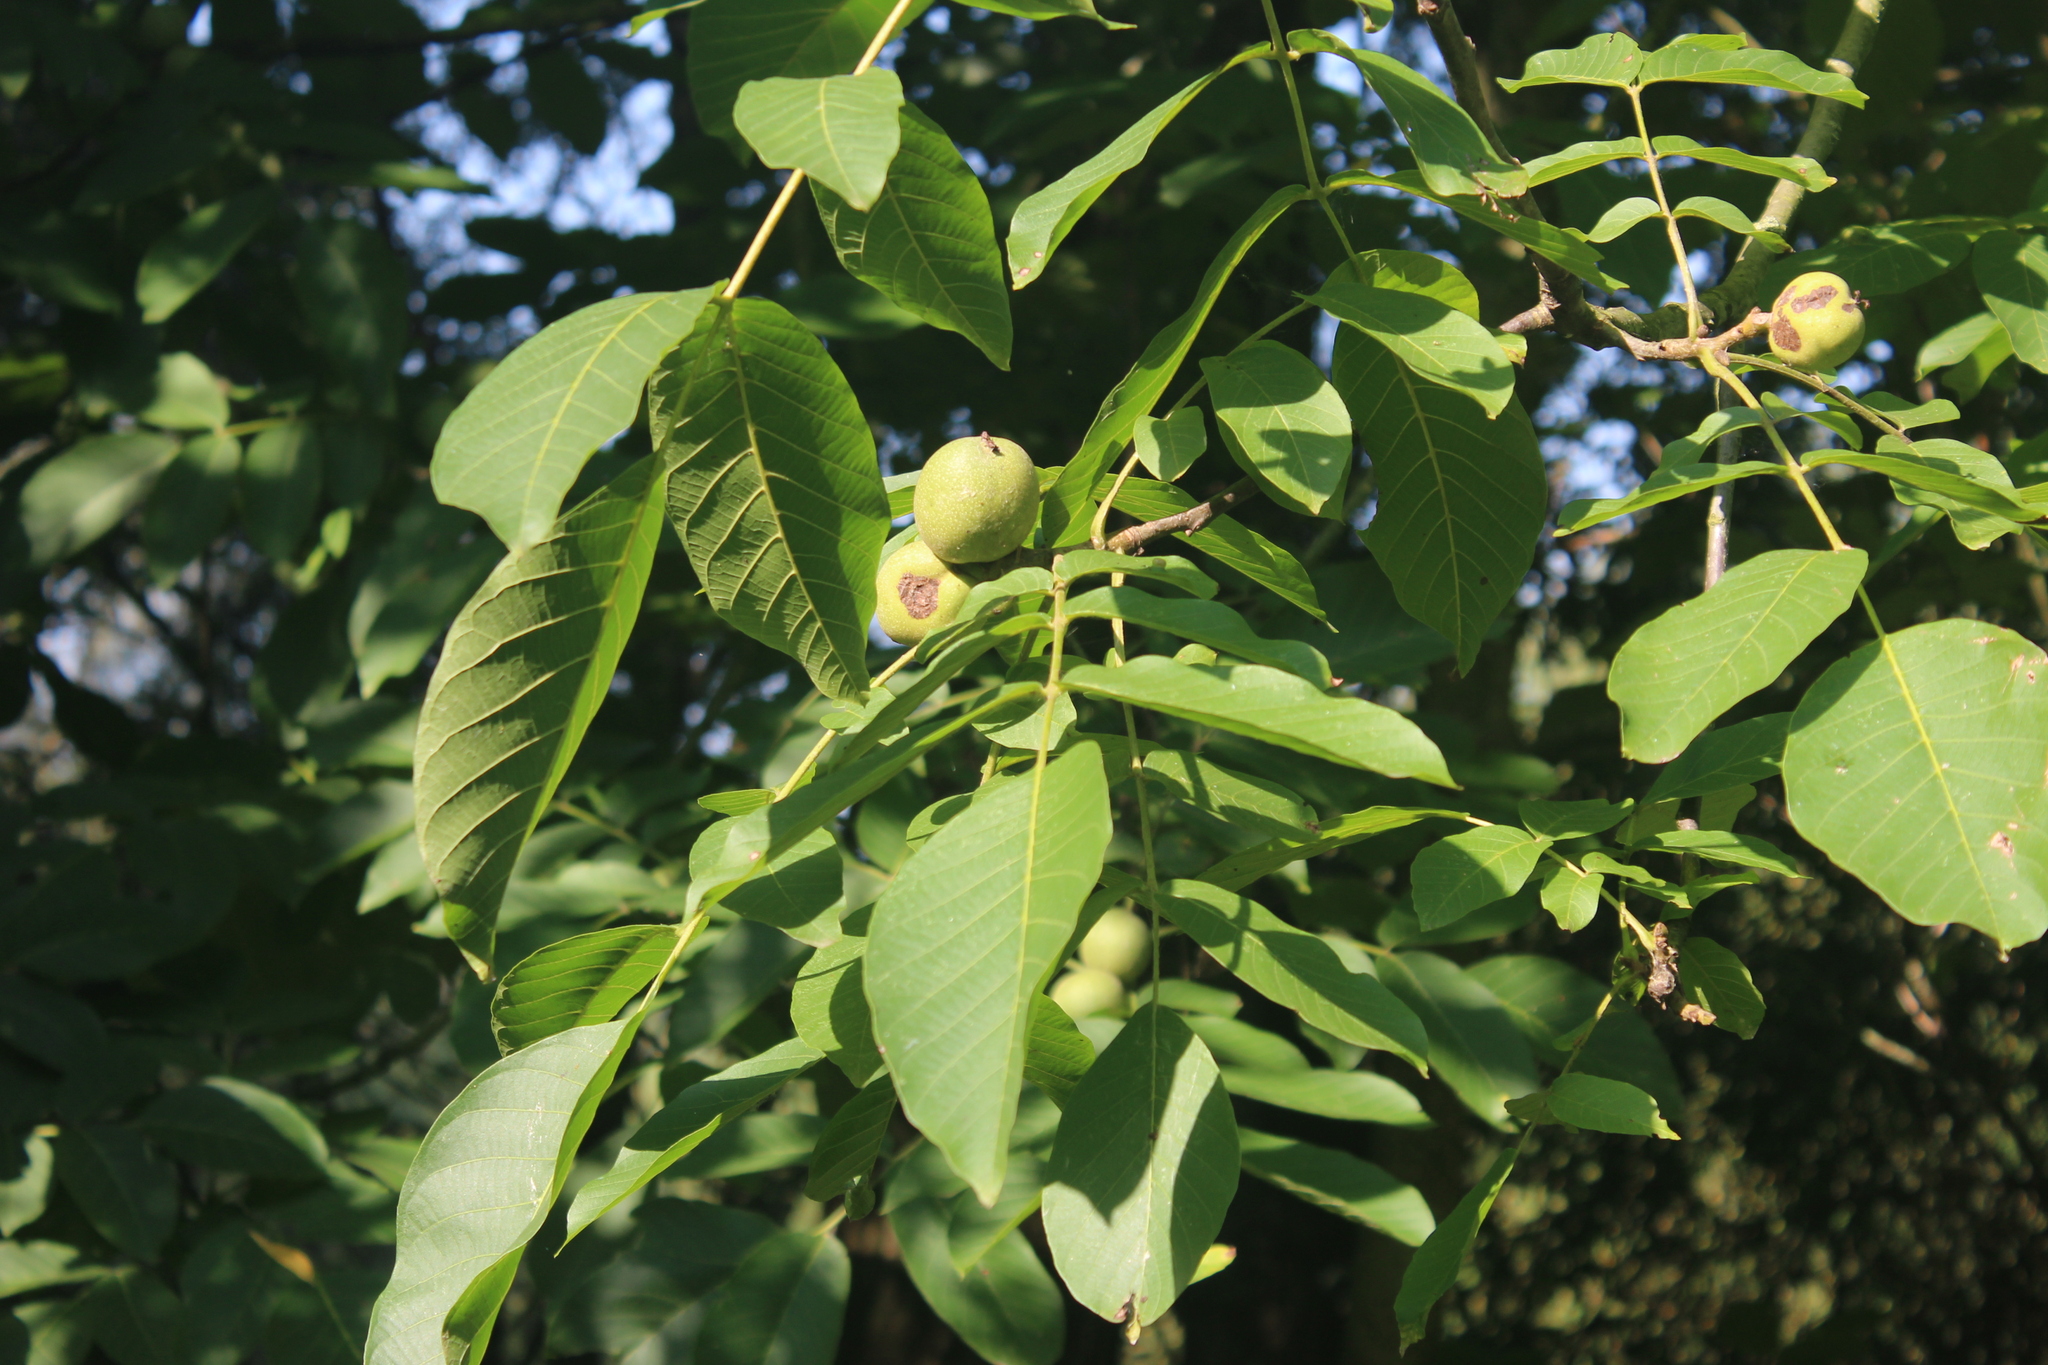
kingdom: Plantae
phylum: Tracheophyta
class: Magnoliopsida
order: Fagales
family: Juglandaceae
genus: Juglans
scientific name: Juglans regia
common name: Walnut
